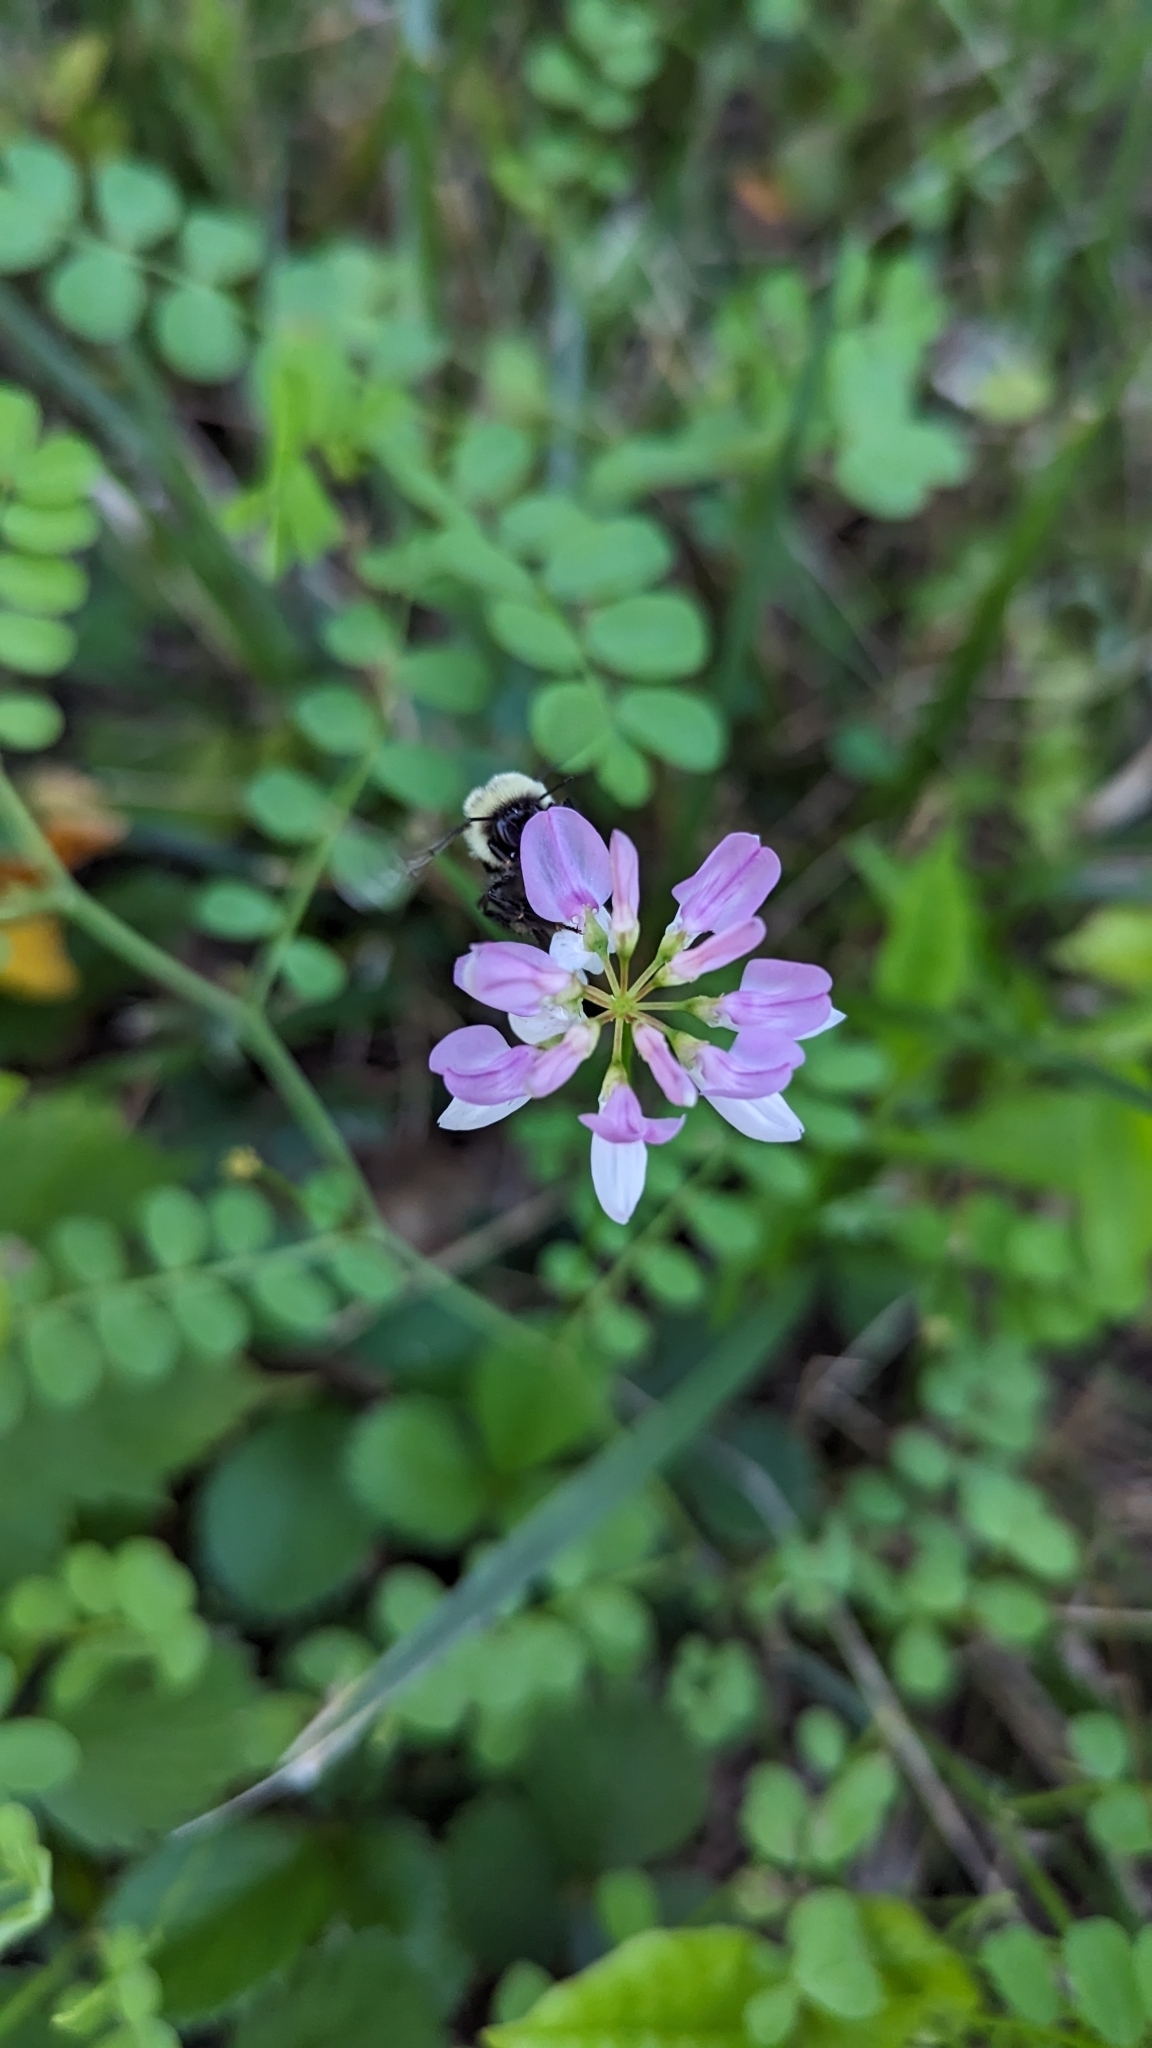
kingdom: Animalia
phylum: Arthropoda
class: Insecta
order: Hymenoptera
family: Apidae
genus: Bombus
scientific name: Bombus impatiens
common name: Common eastern bumble bee
